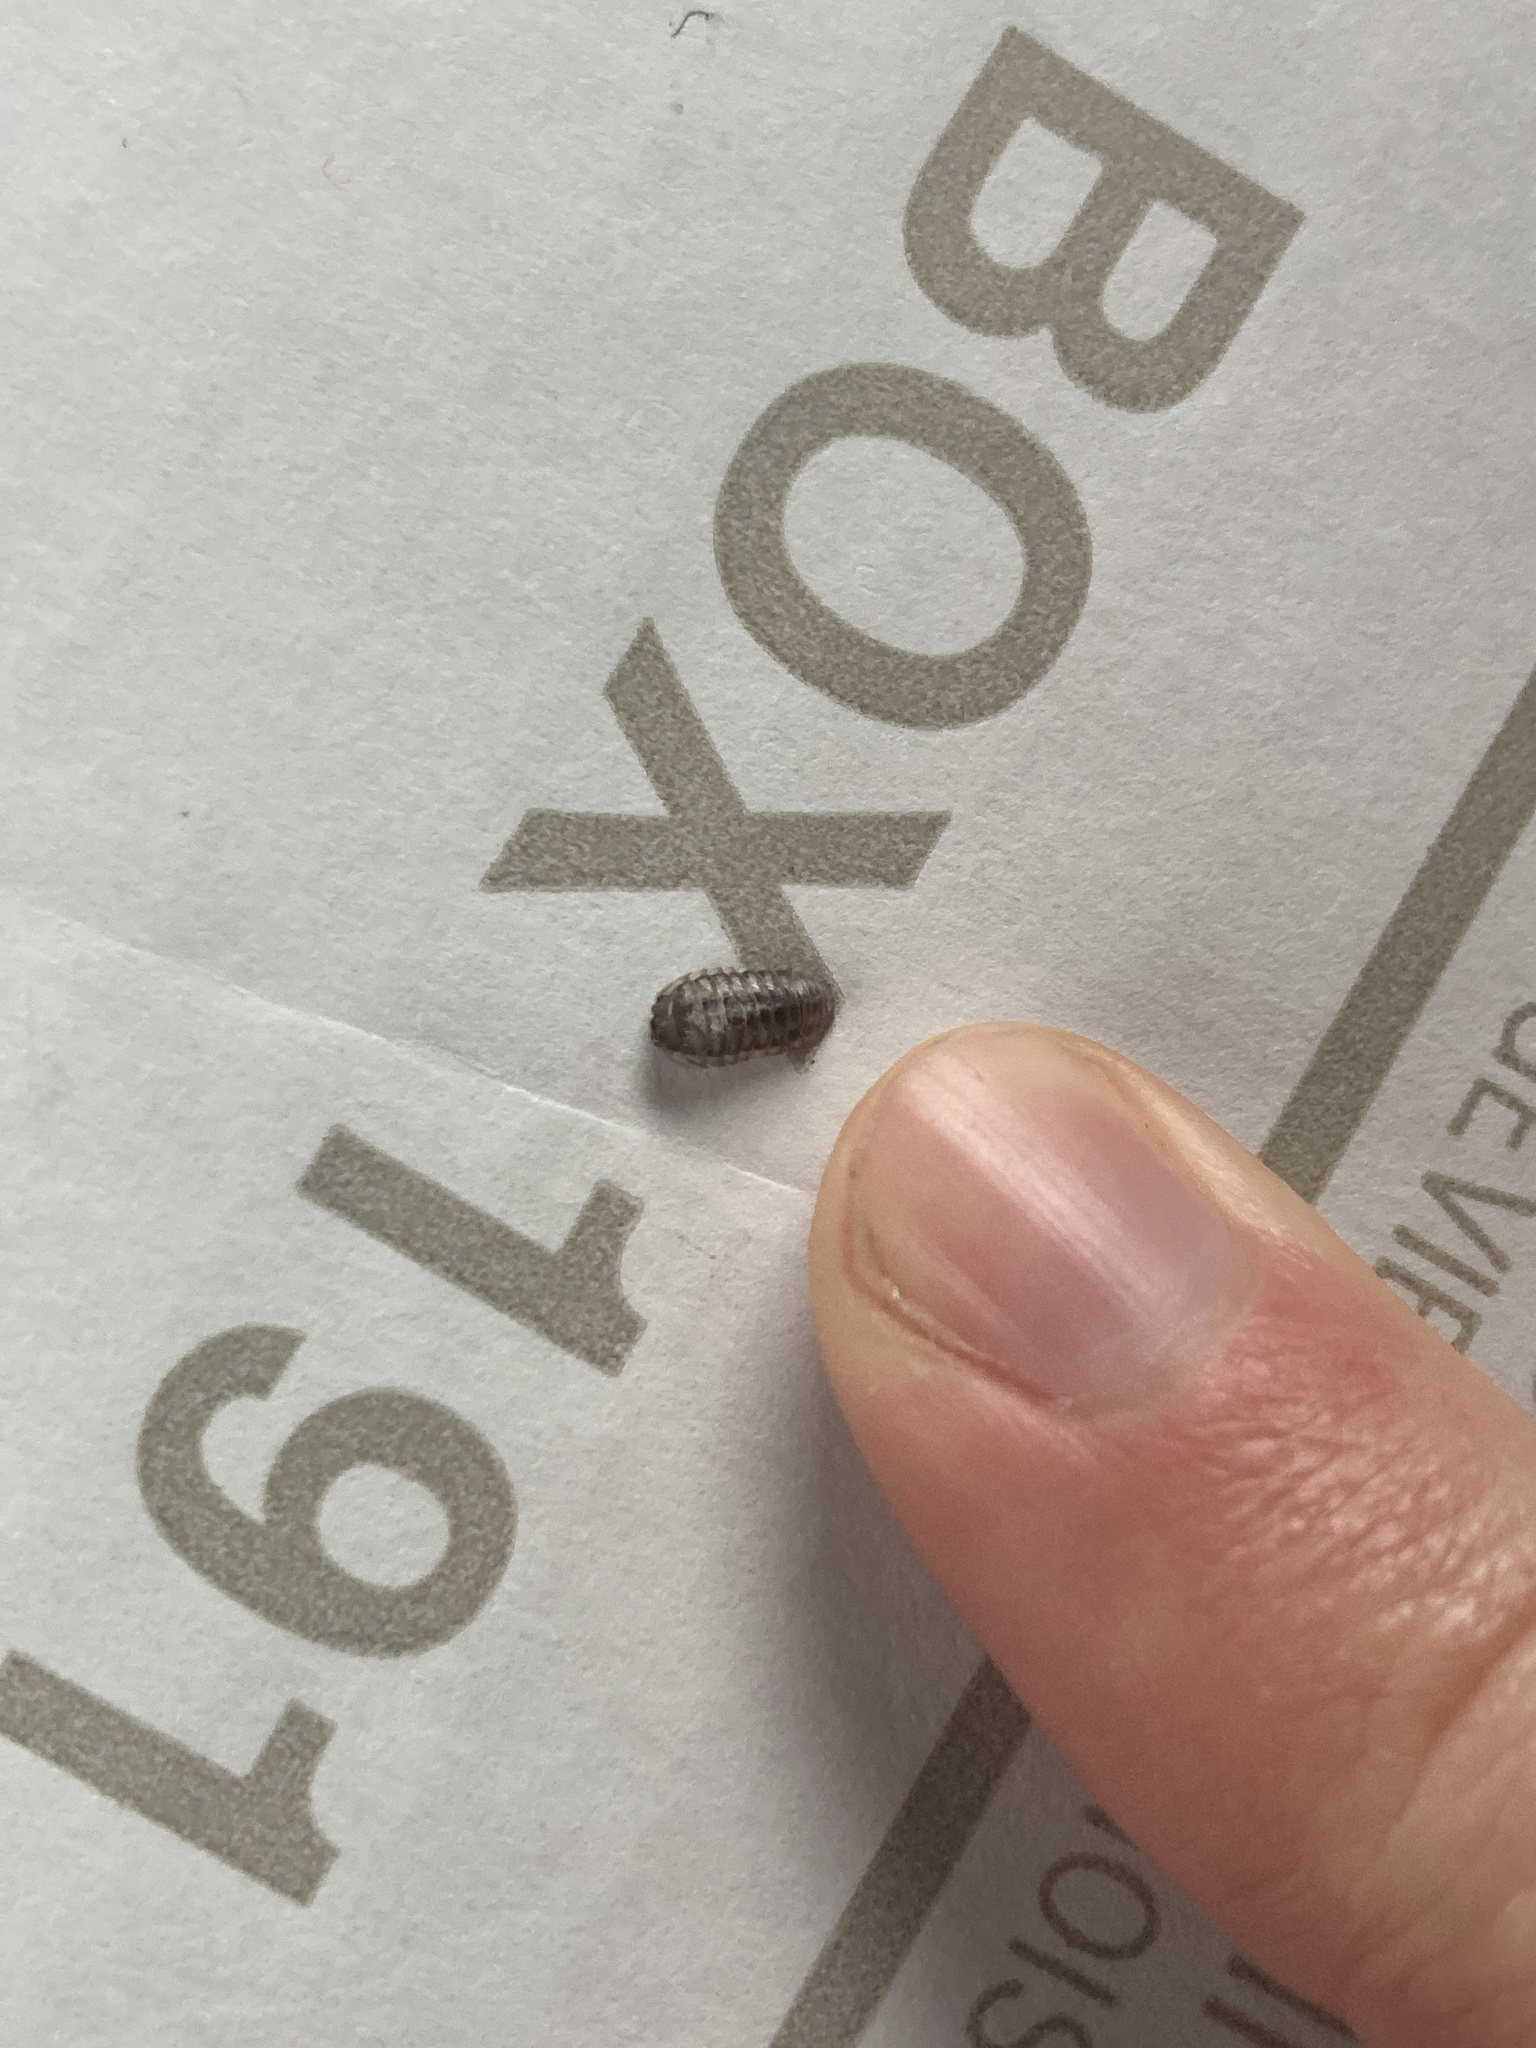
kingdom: Animalia
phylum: Arthropoda
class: Malacostraca
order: Isopoda
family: Armadillidiidae
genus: Armadillidium
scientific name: Armadillidium nasatum
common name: Isopod
